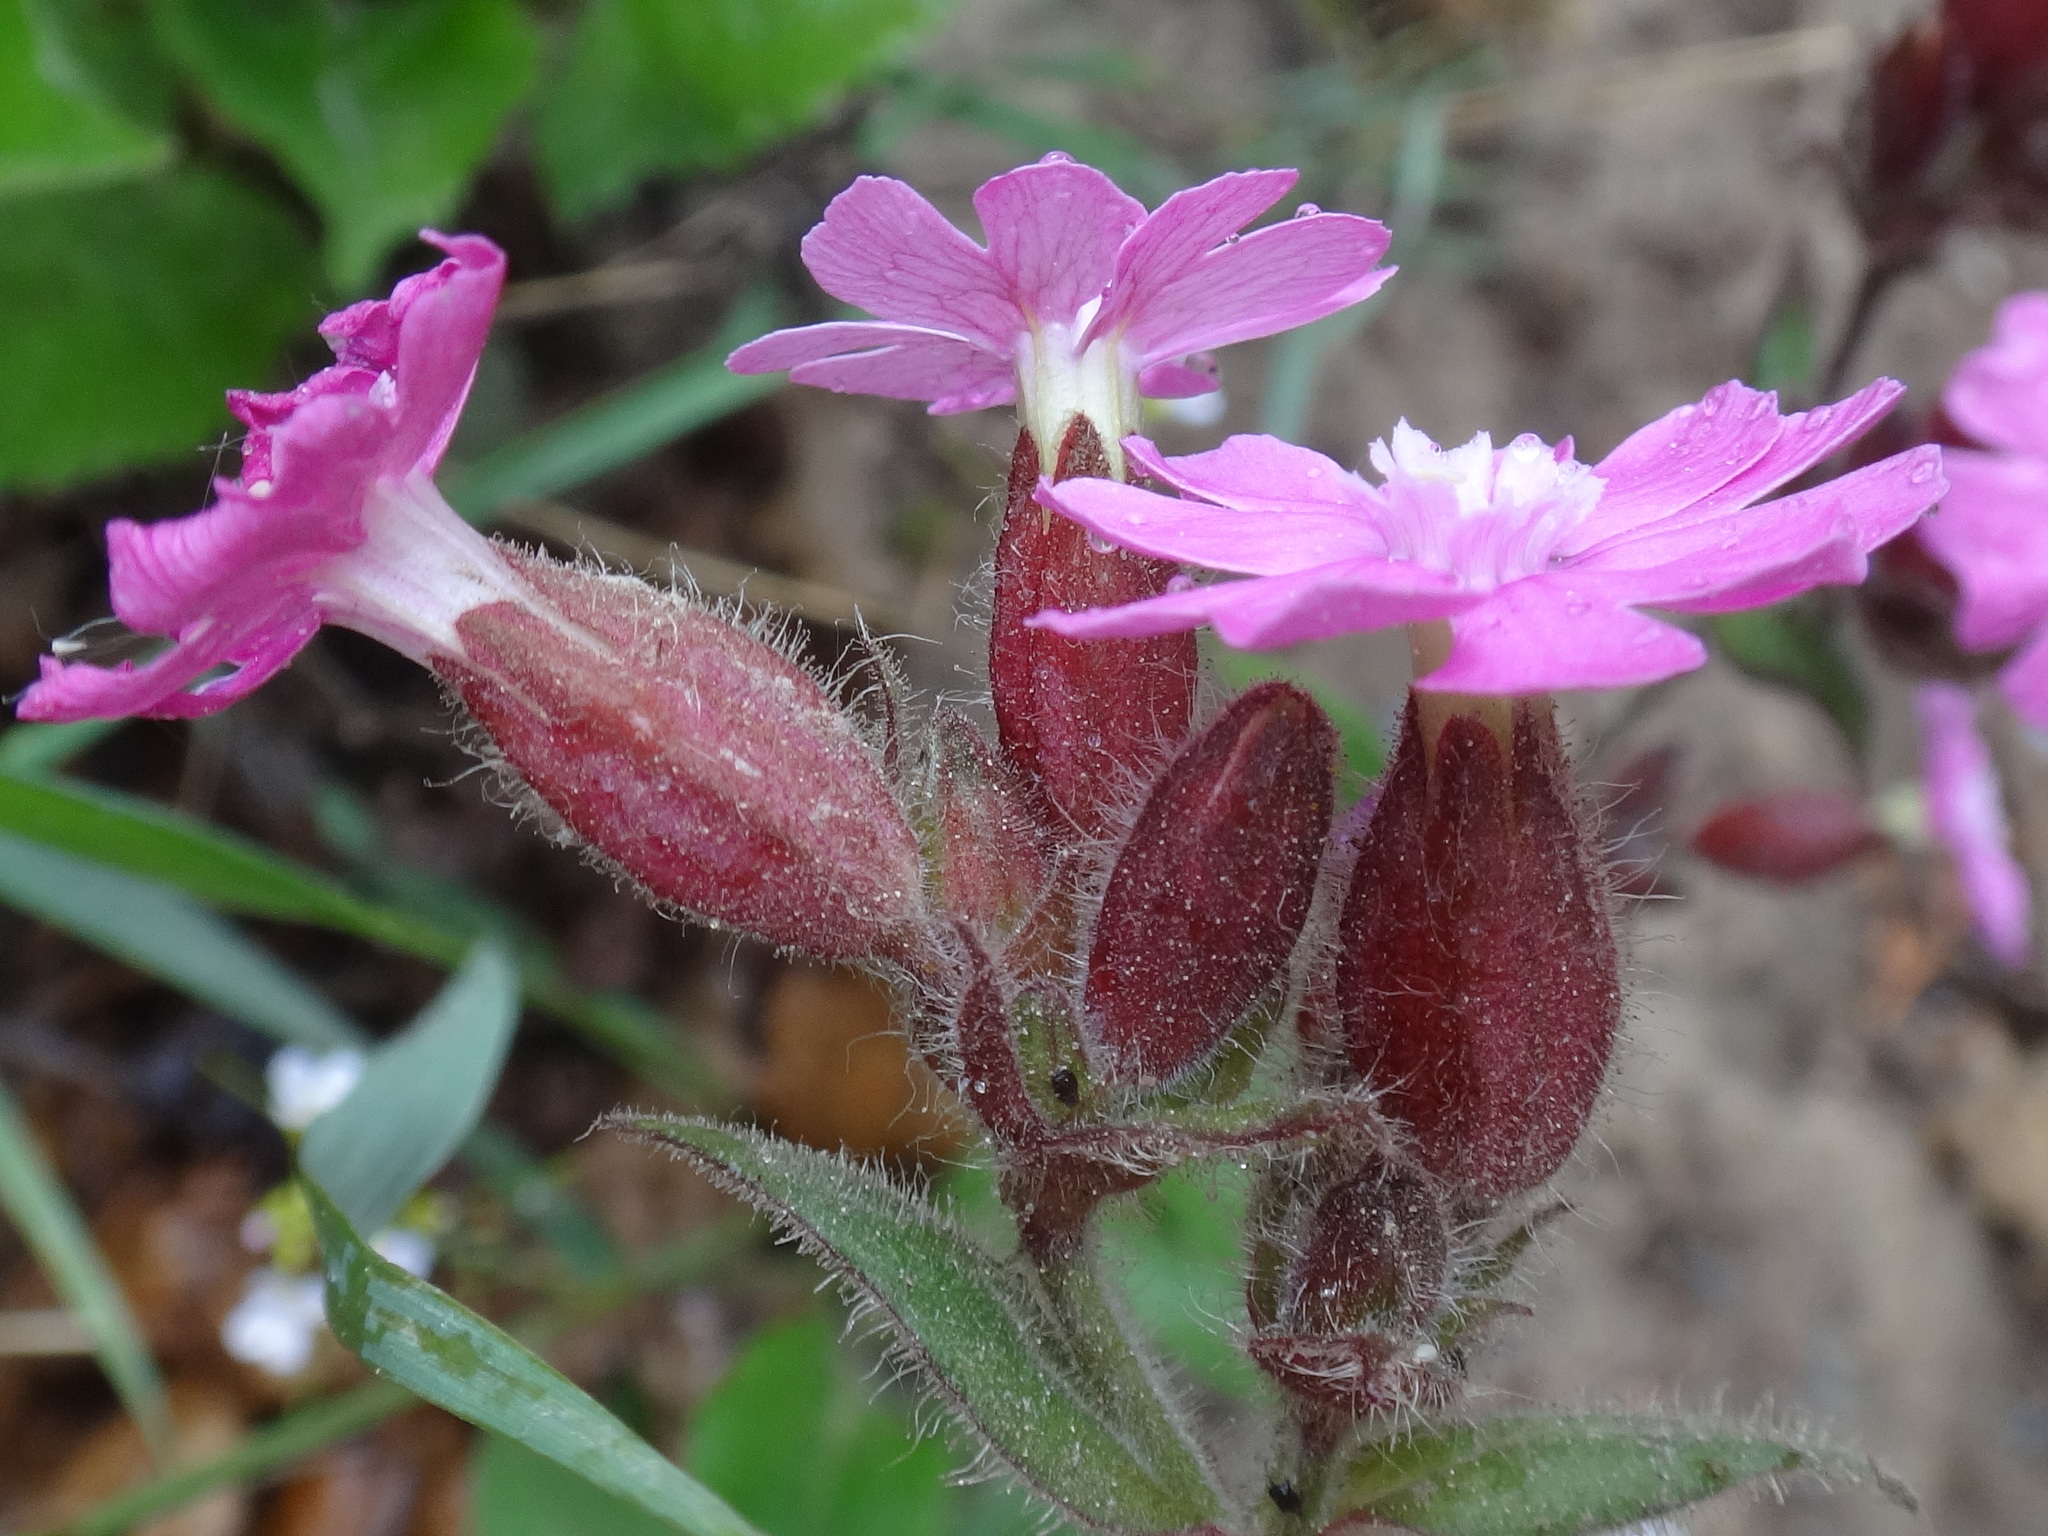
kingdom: Plantae
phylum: Tracheophyta
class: Magnoliopsida
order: Caryophyllales
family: Caryophyllaceae
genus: Silene
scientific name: Silene dioica
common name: Red campion
